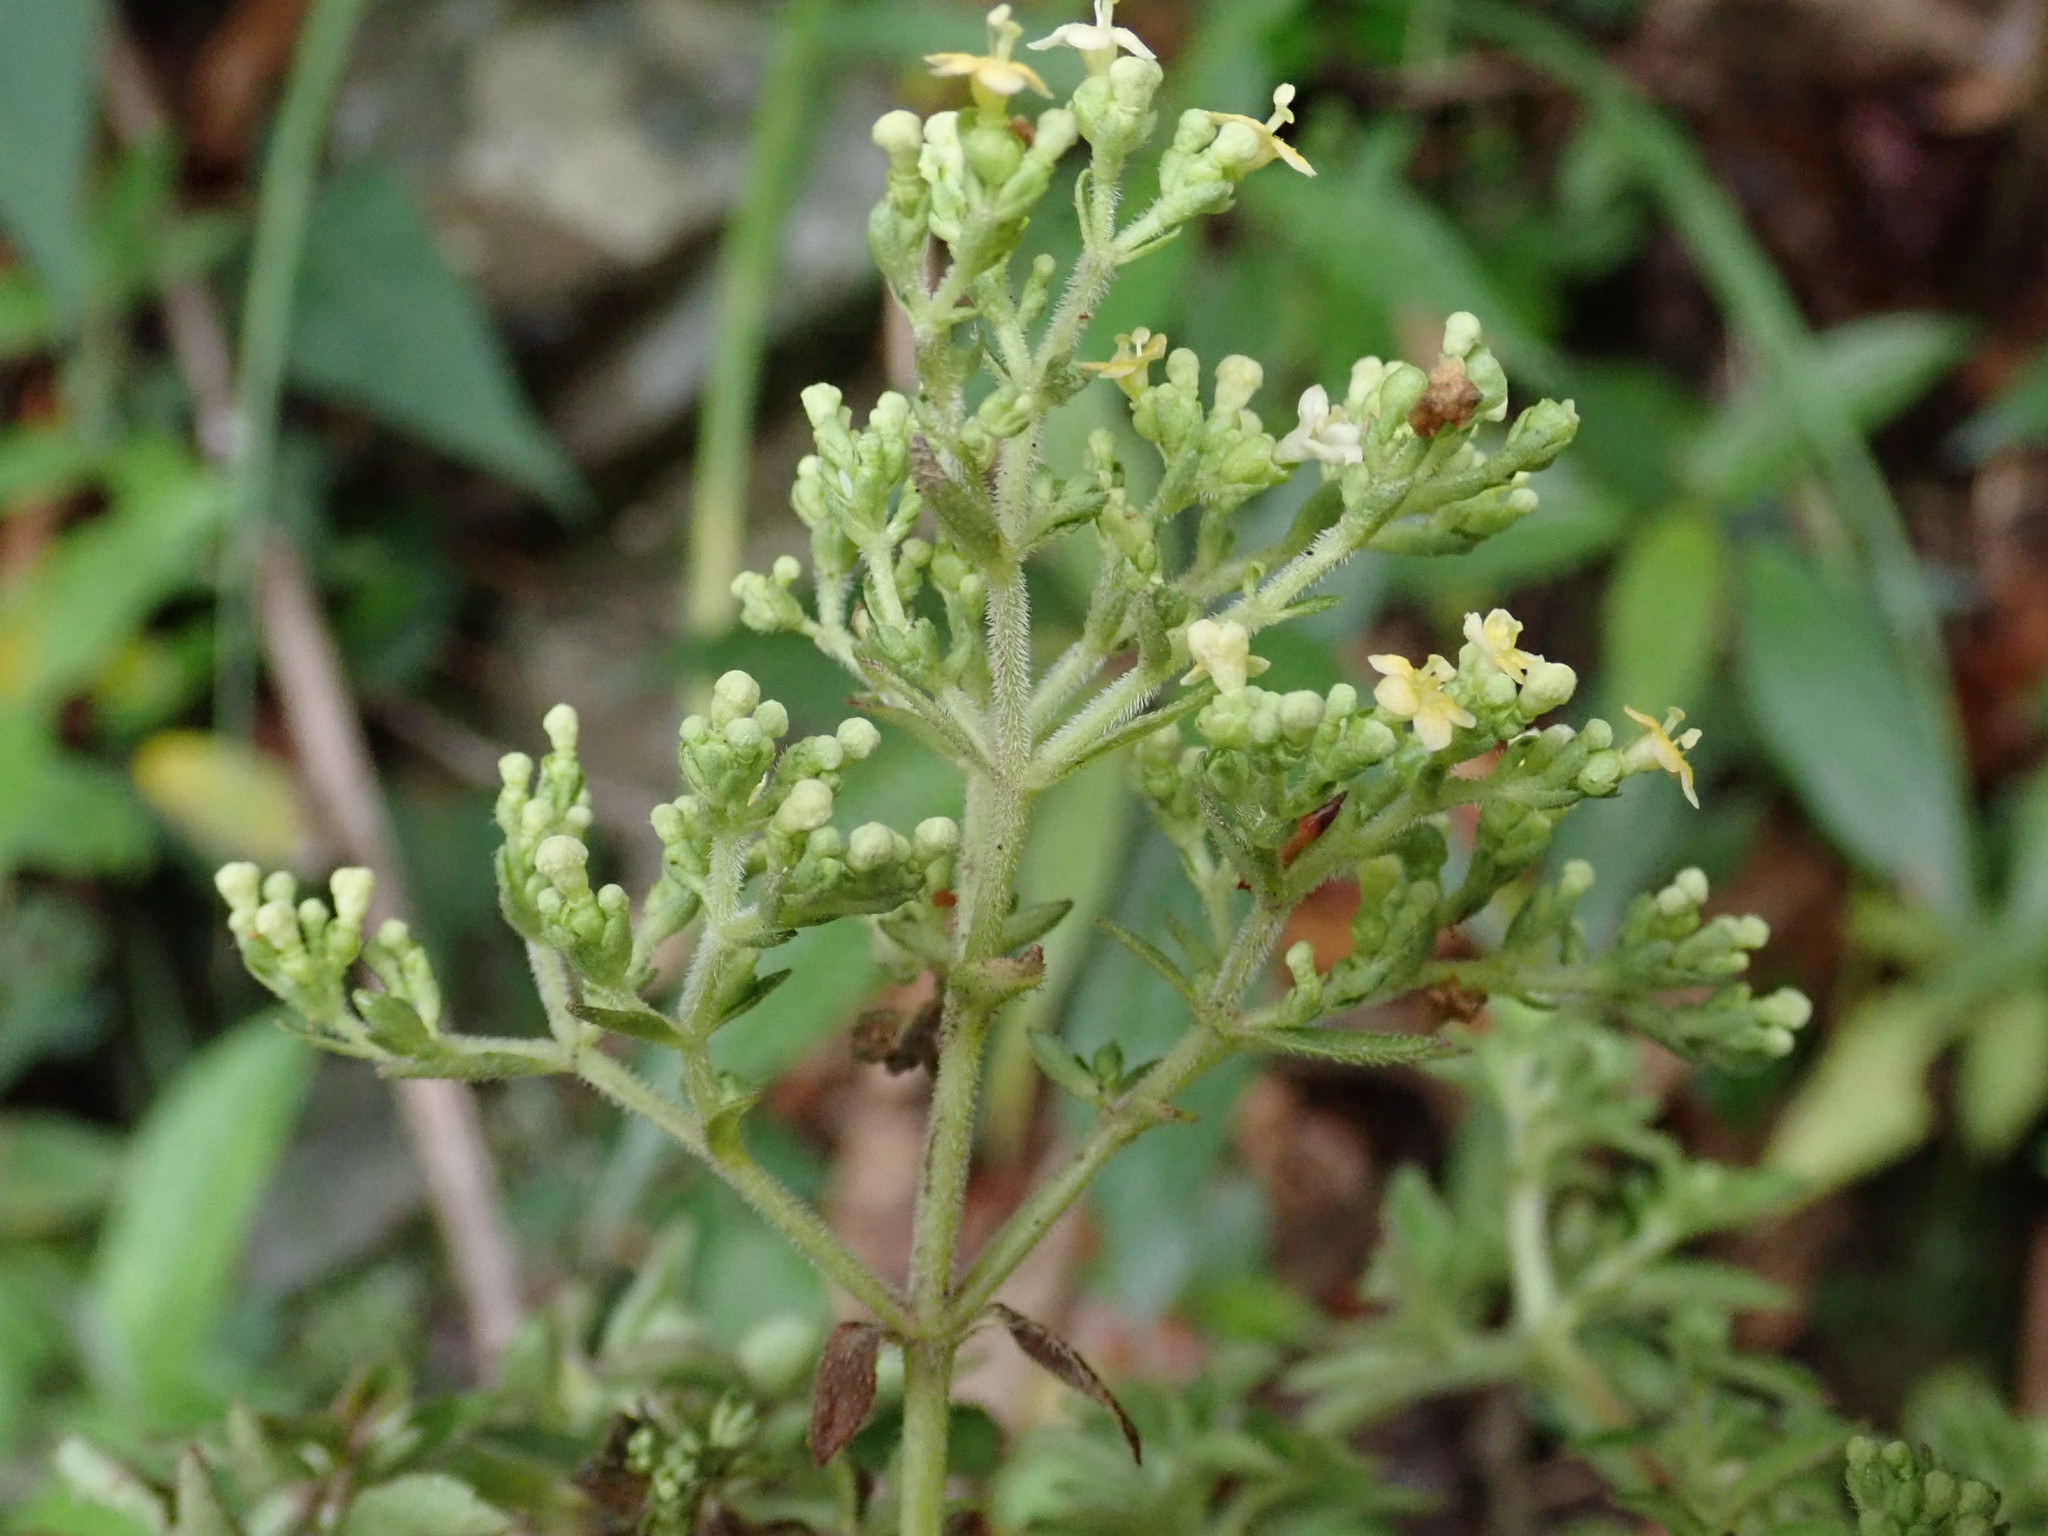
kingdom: Plantae
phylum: Tracheophyta
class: Magnoliopsida
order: Dipsacales
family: Caprifoliaceae
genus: Patrinia
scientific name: Patrinia glabrifolia
